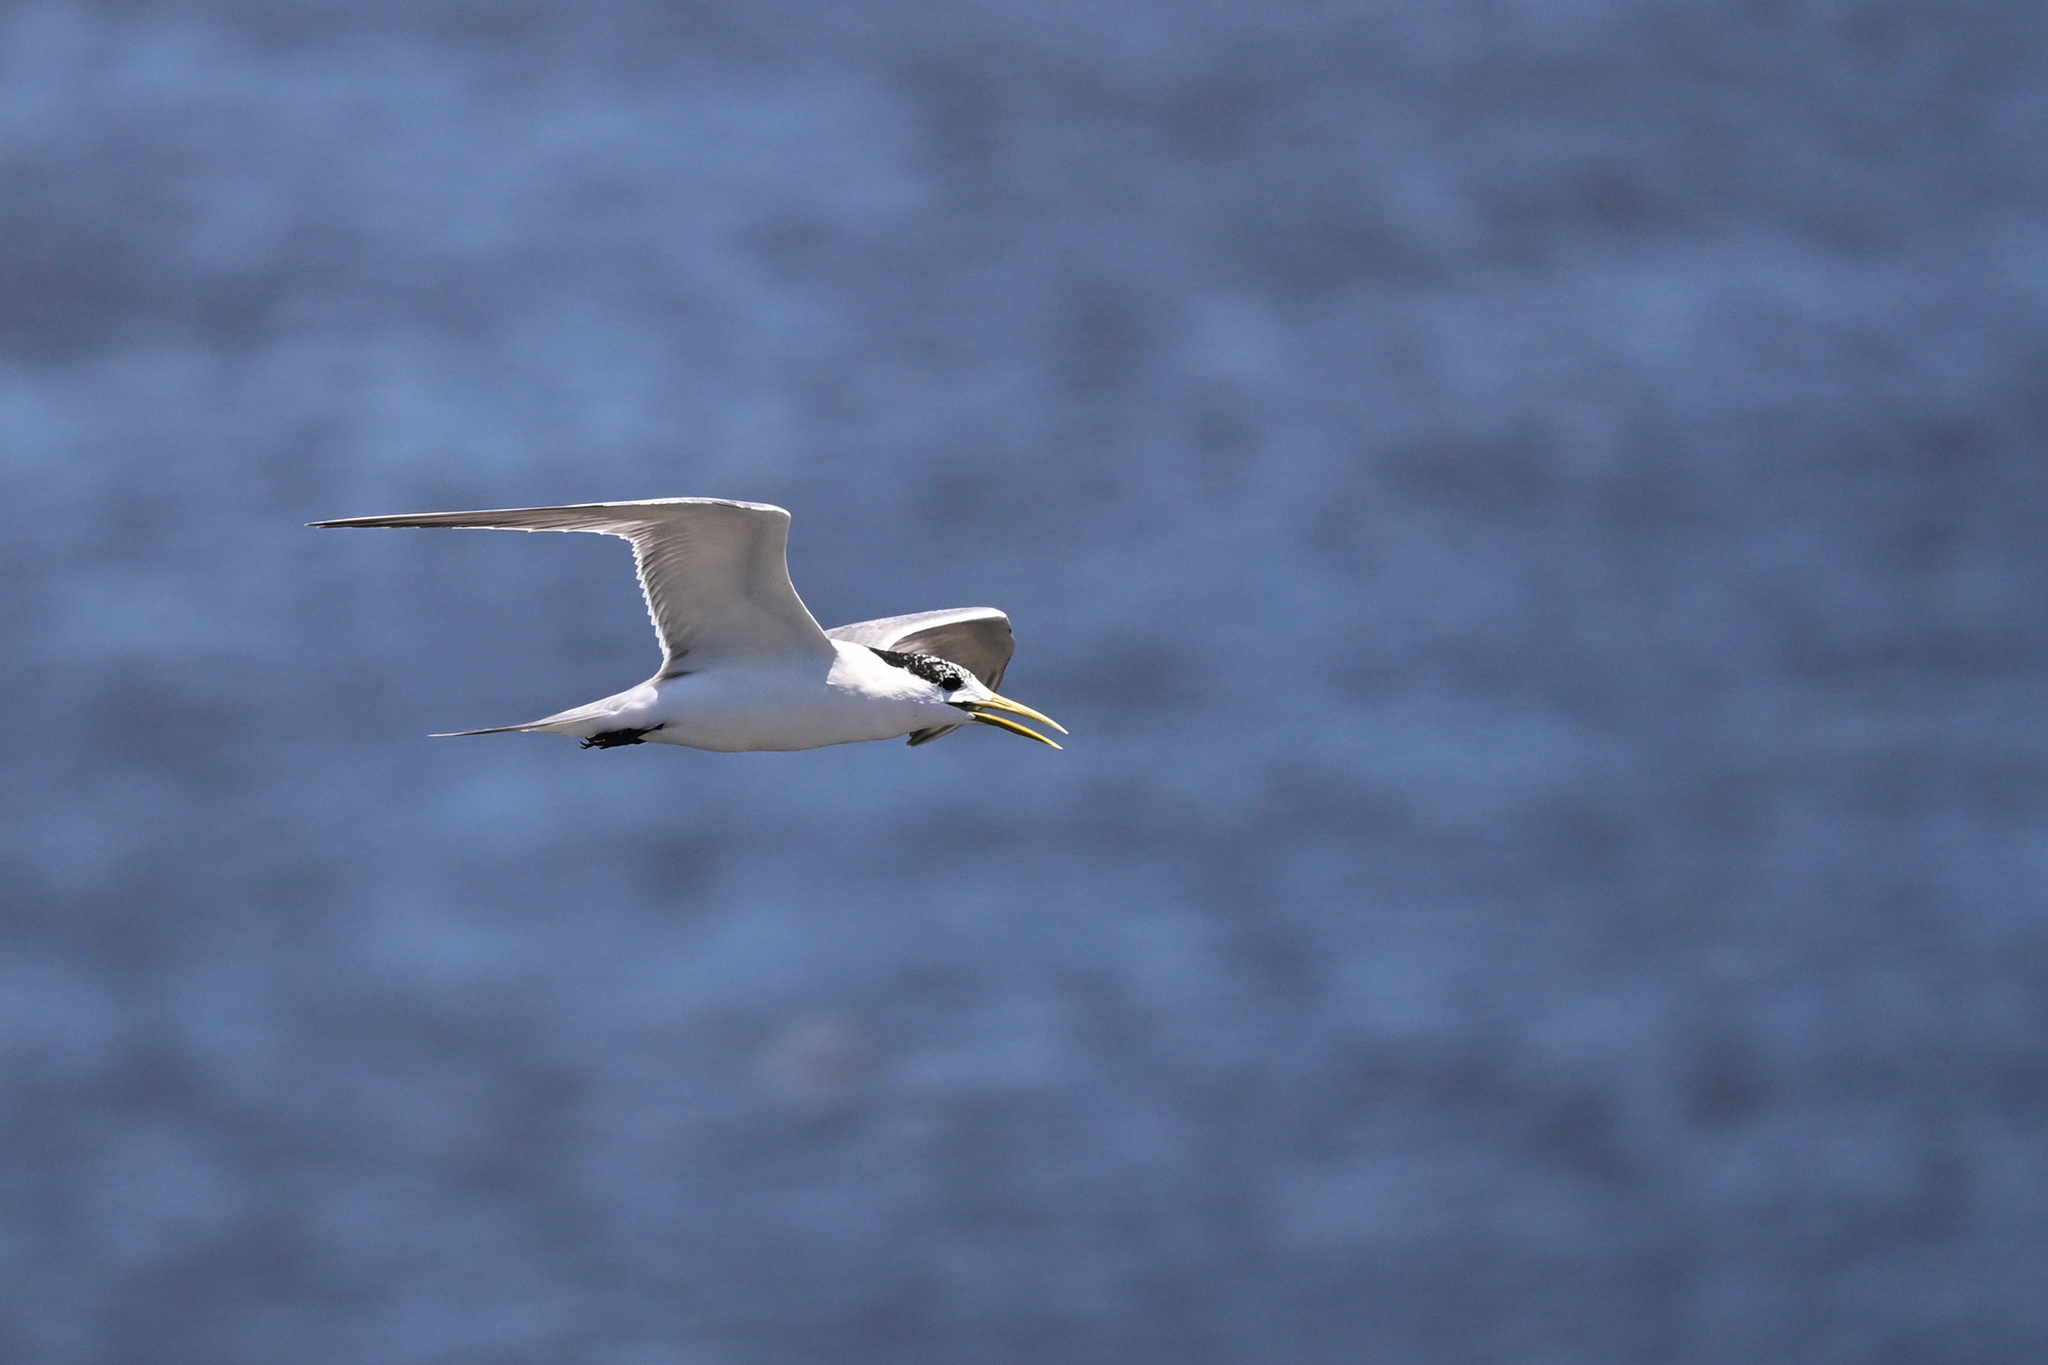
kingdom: Animalia
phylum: Chordata
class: Aves
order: Charadriiformes
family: Laridae
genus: Thalasseus
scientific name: Thalasseus bergii
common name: Greater crested tern
